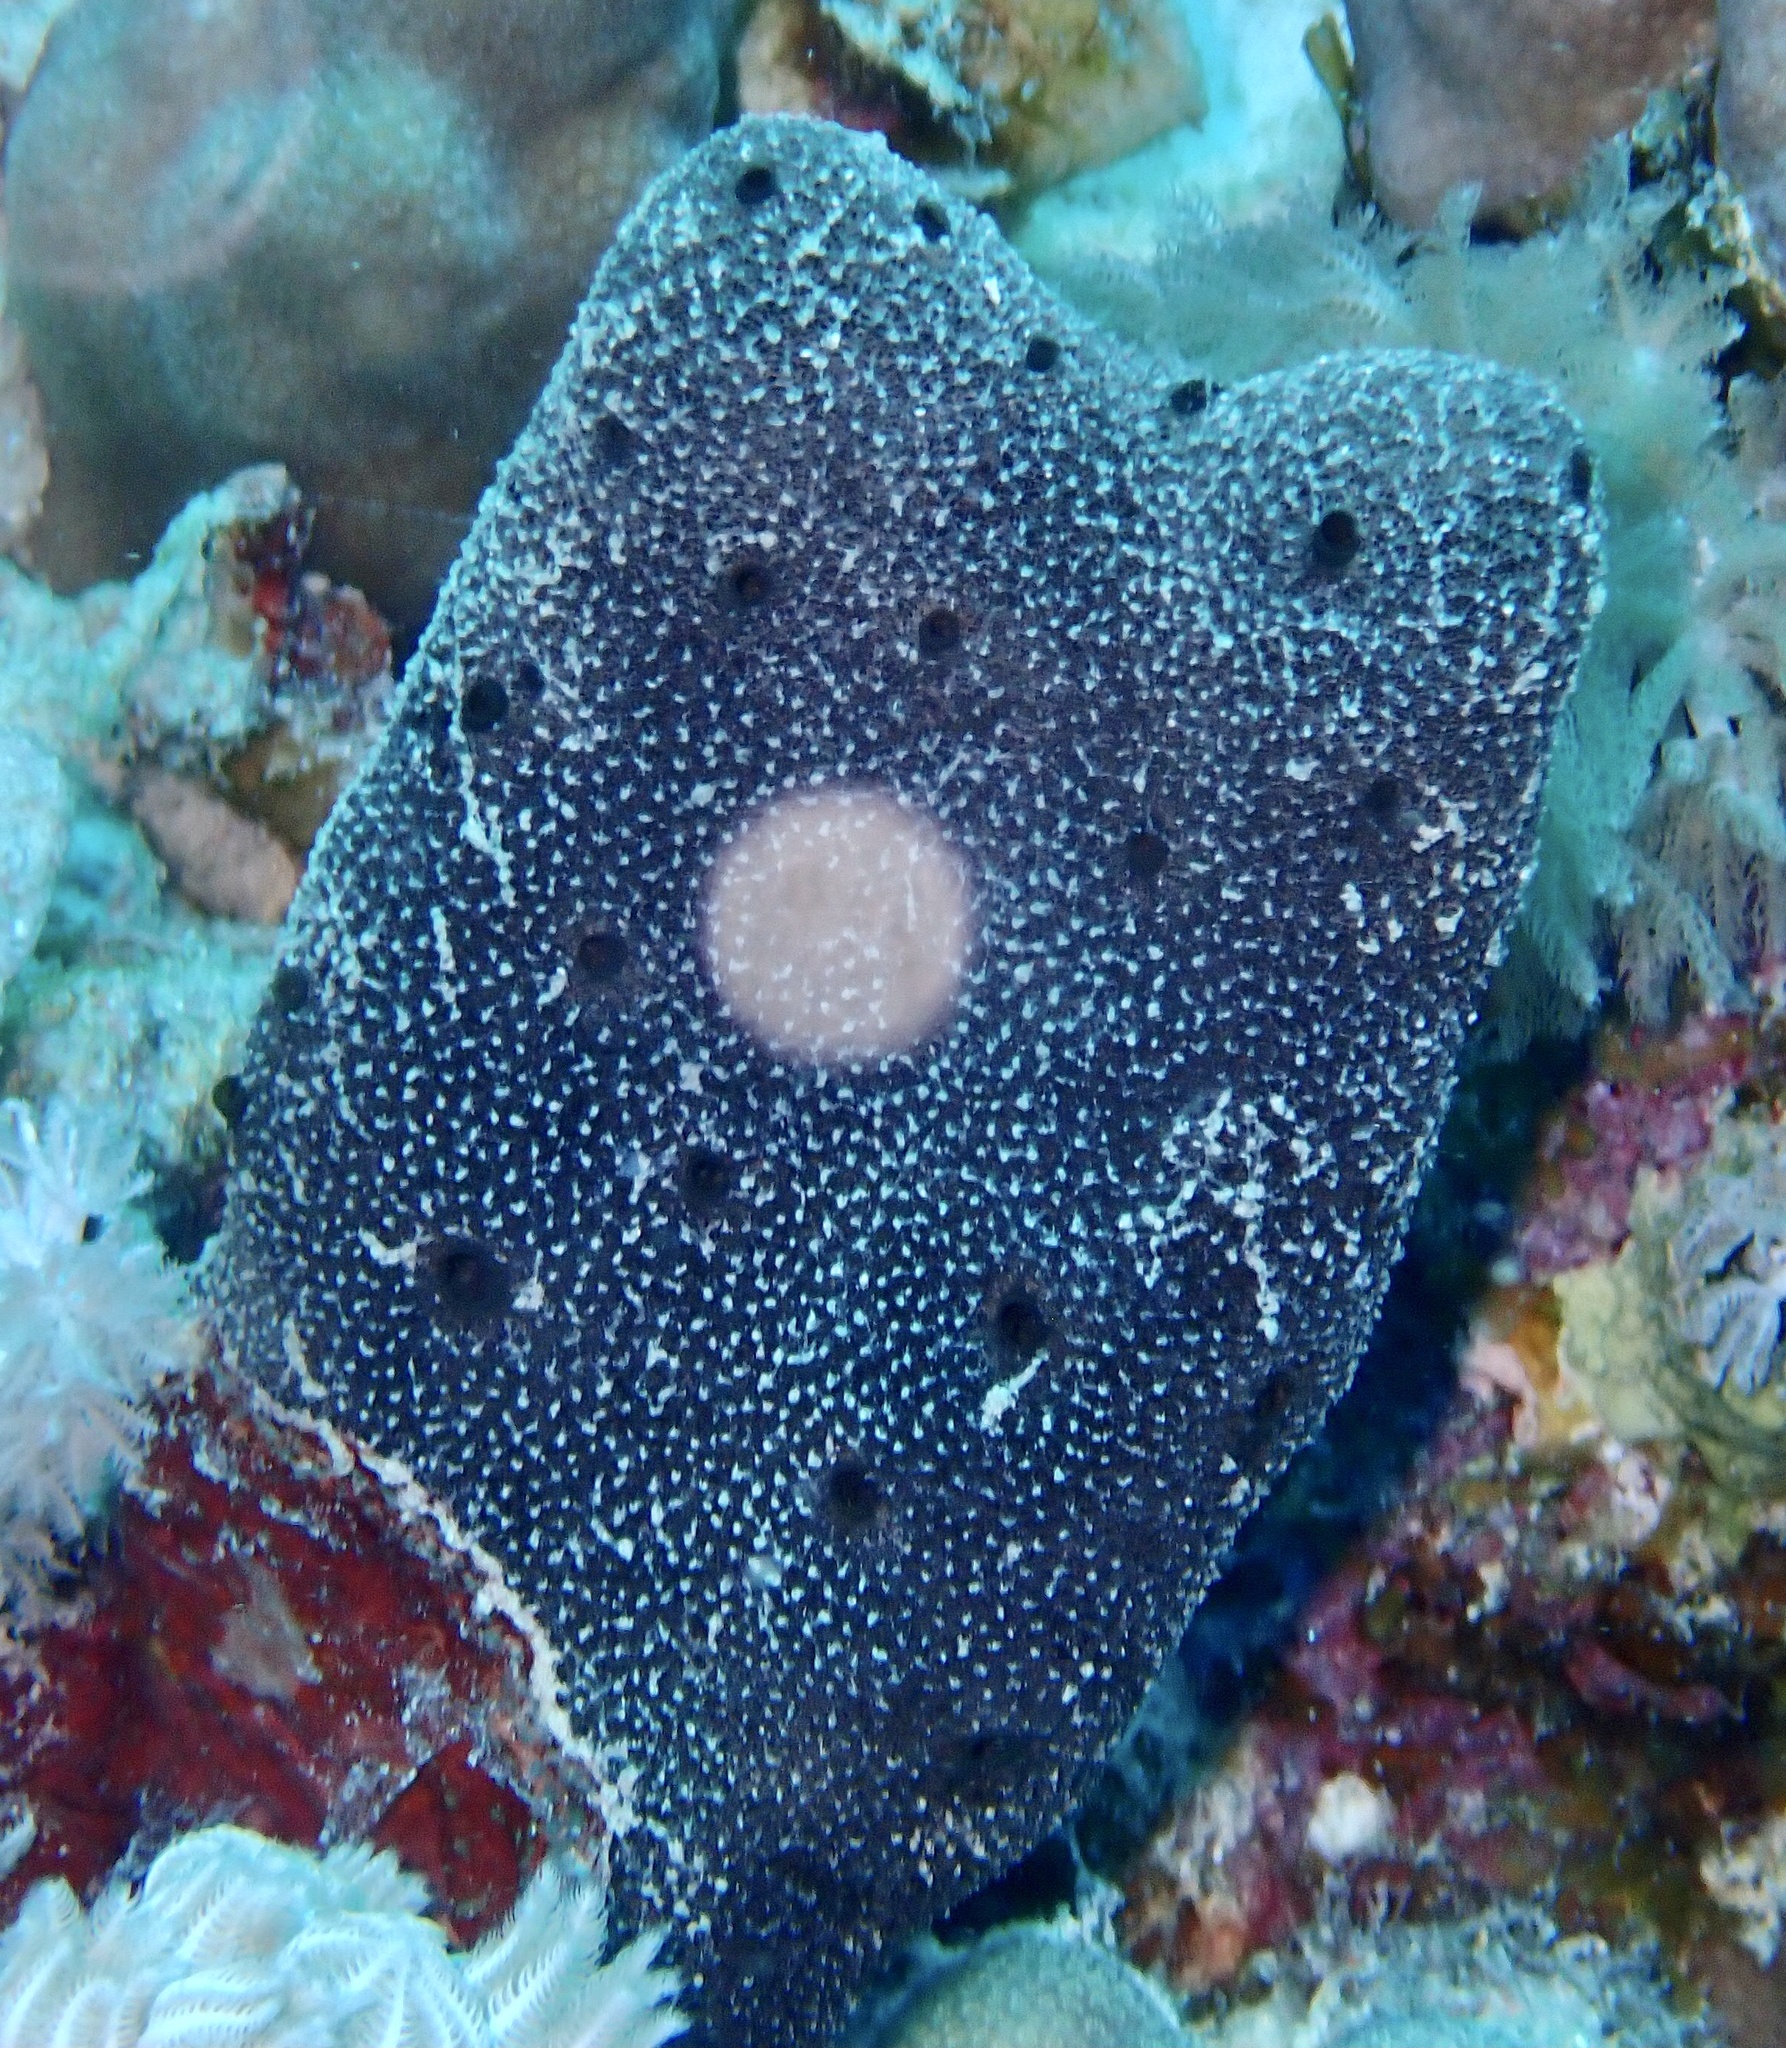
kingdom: Animalia
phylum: Porifera
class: Demospongiae
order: Dictyoceratida
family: Thorectidae
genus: Hyrtios
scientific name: Hyrtios erectus
